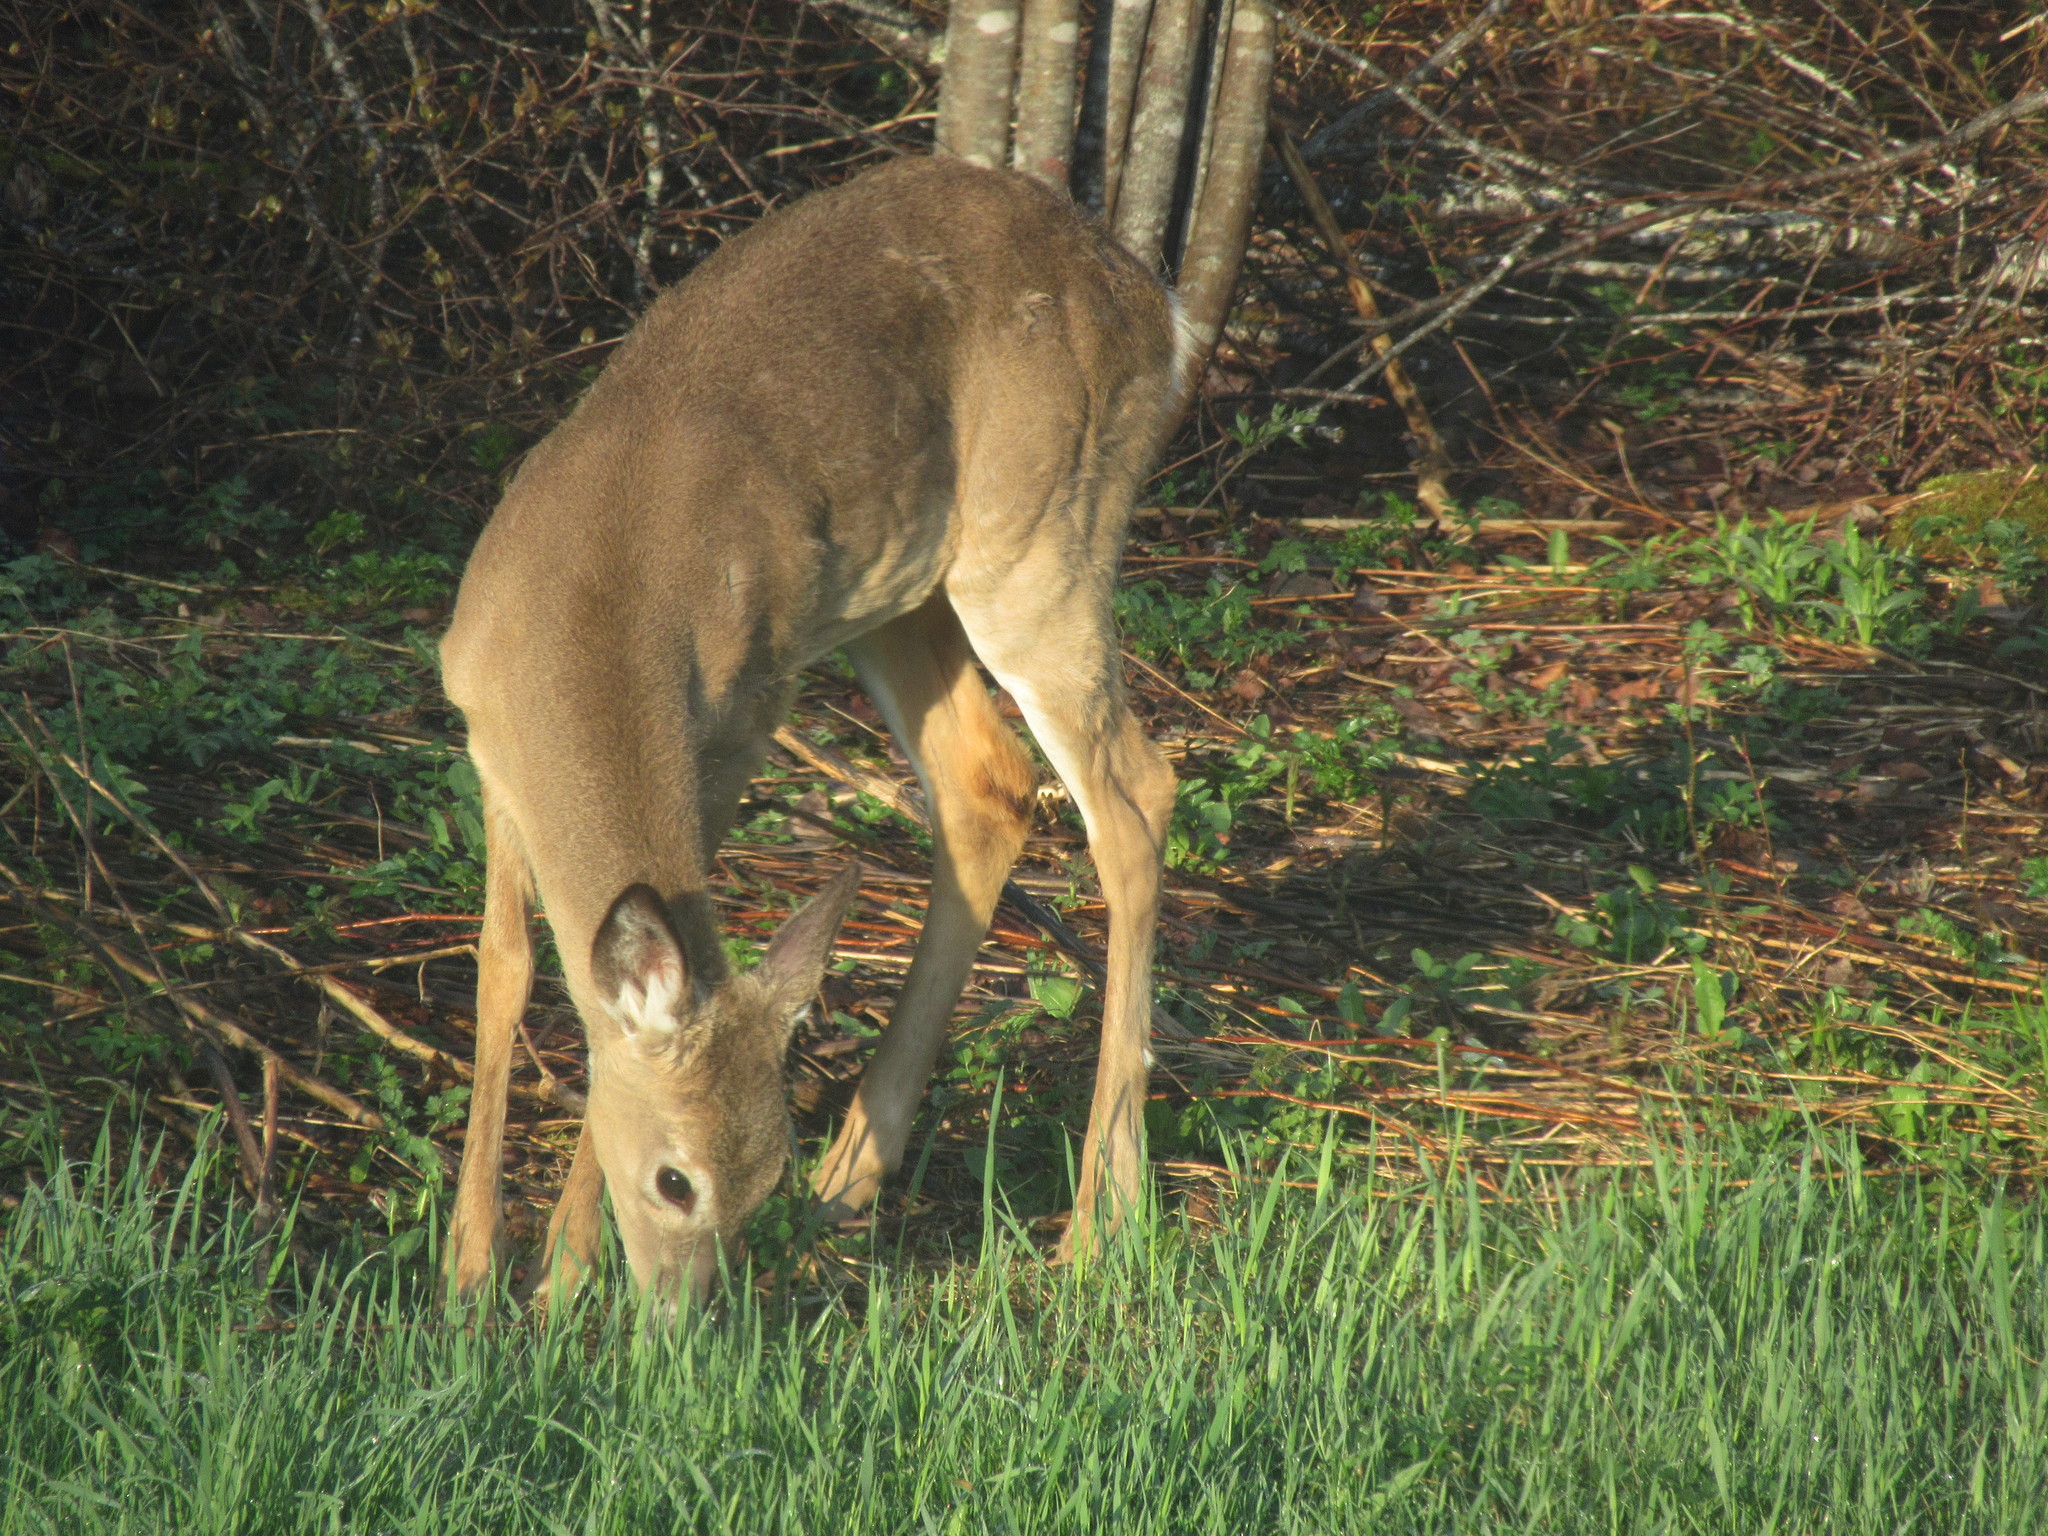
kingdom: Animalia
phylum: Chordata
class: Mammalia
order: Artiodactyla
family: Cervidae
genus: Odocoileus
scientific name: Odocoileus virginianus
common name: White-tailed deer
